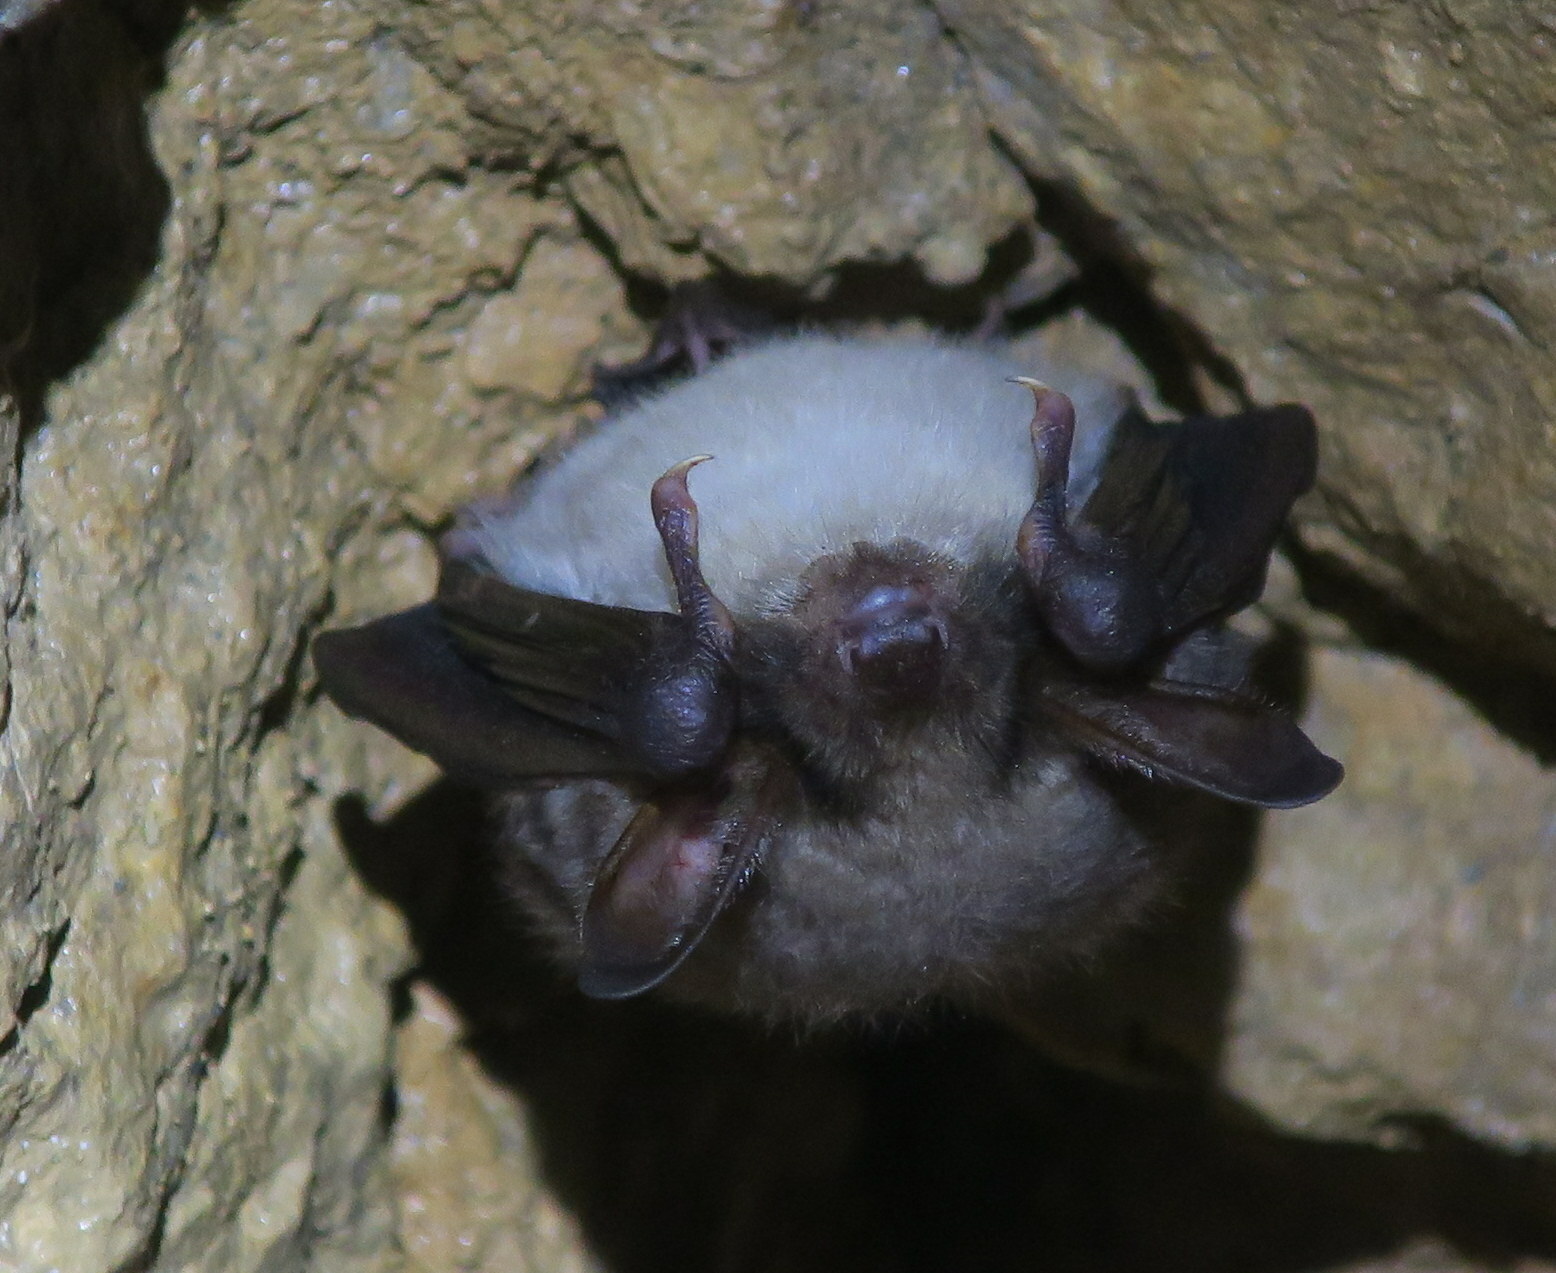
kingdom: Animalia
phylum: Chordata
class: Mammalia
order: Chiroptera
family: Vespertilionidae
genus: Myotis
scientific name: Myotis myotis
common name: Greater mouse-eared bat
